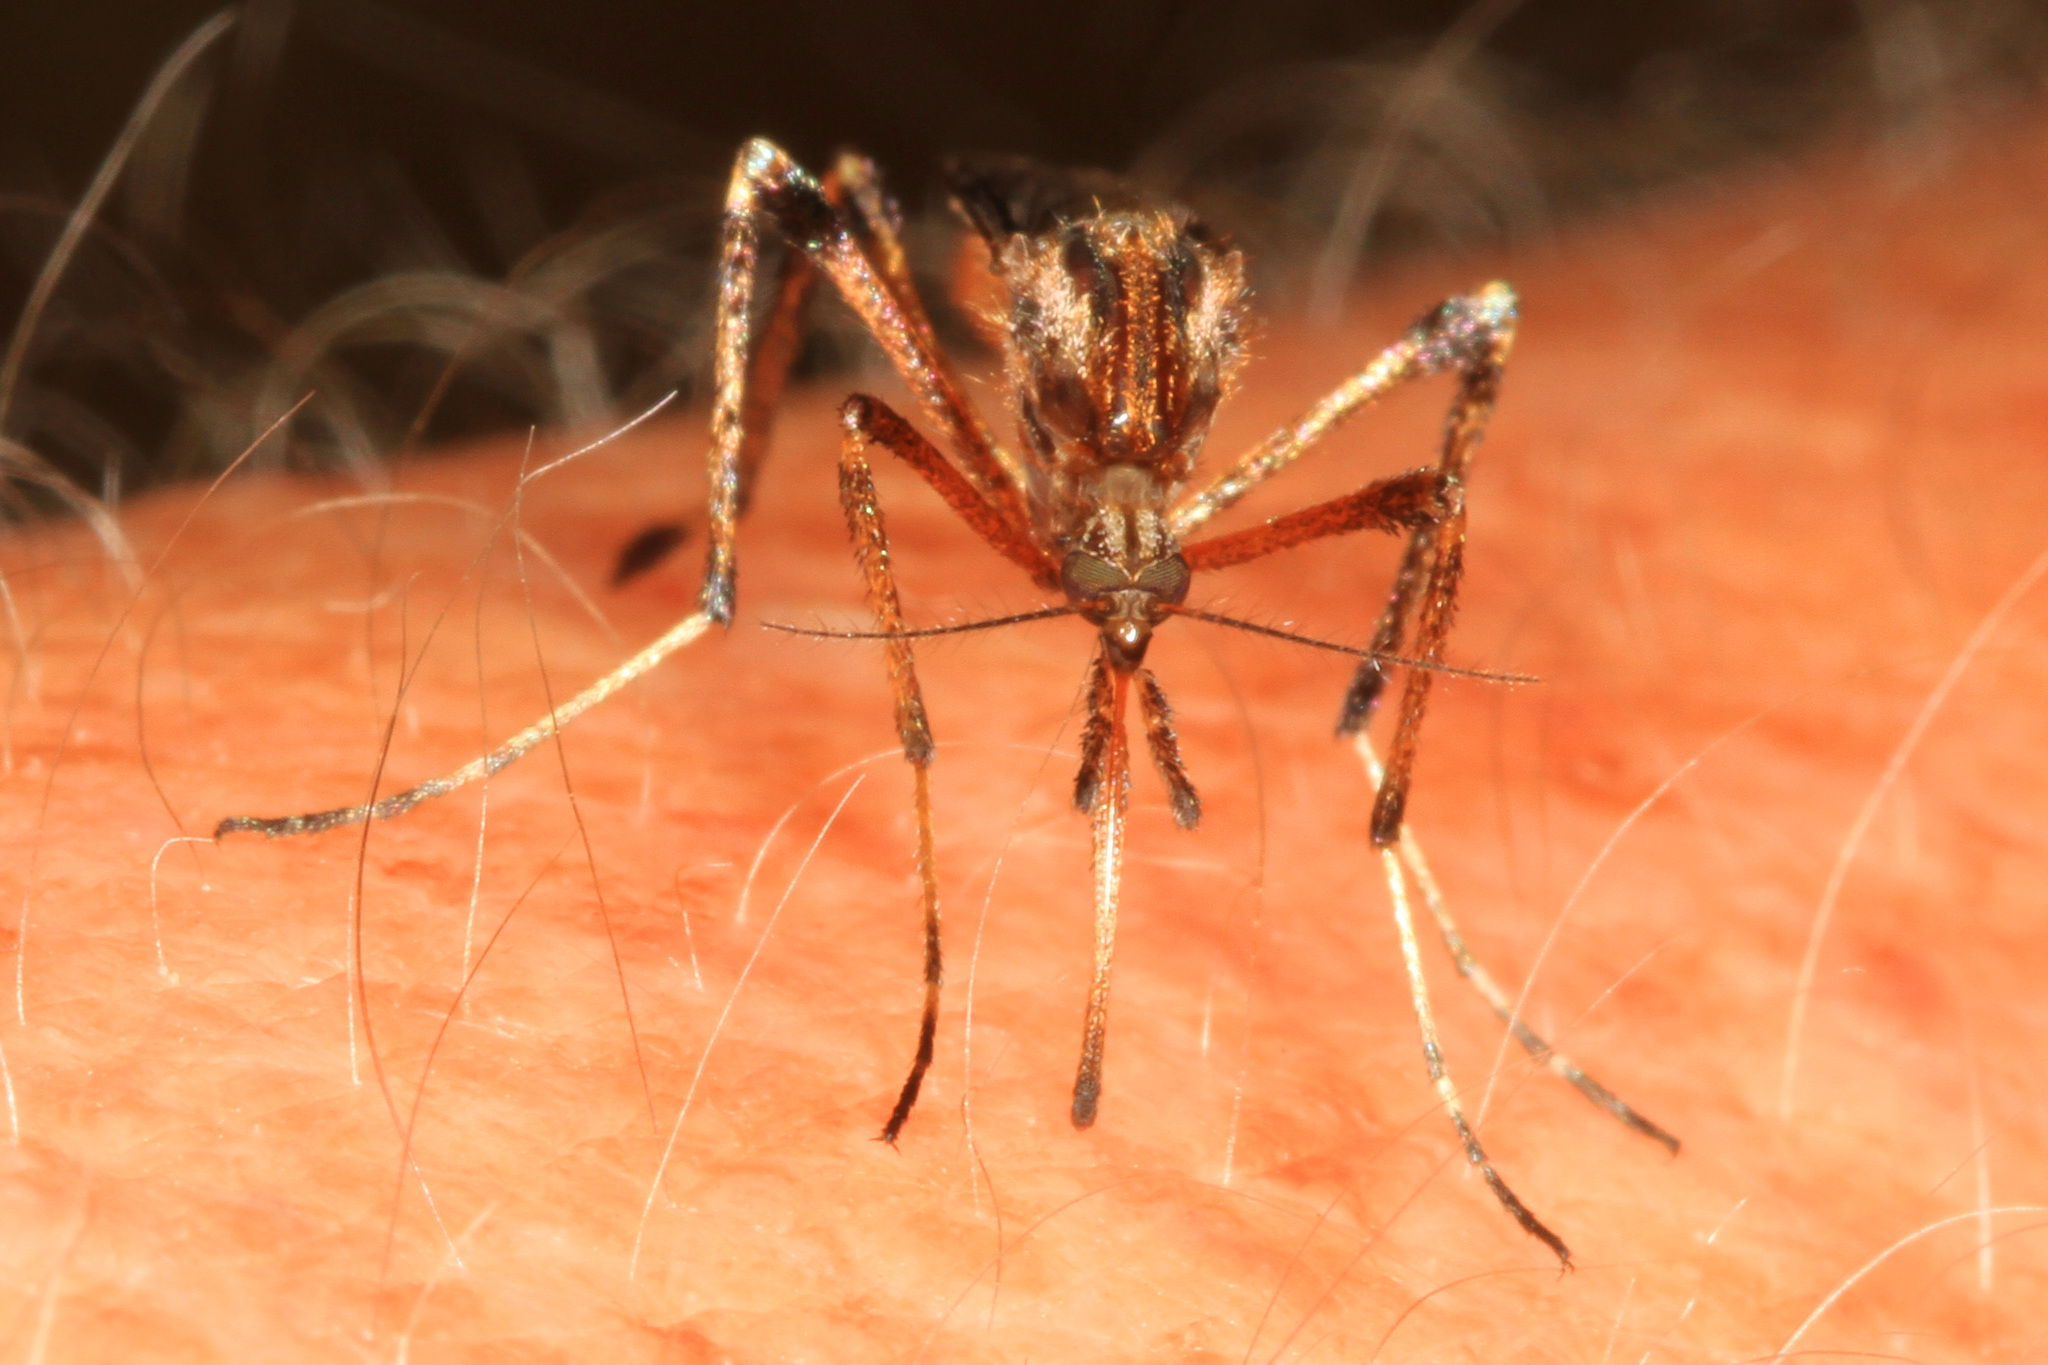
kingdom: Animalia
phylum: Arthropoda
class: Insecta
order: Diptera
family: Culicidae
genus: Psorophora
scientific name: Psorophora ciliata
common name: Gallinipper
